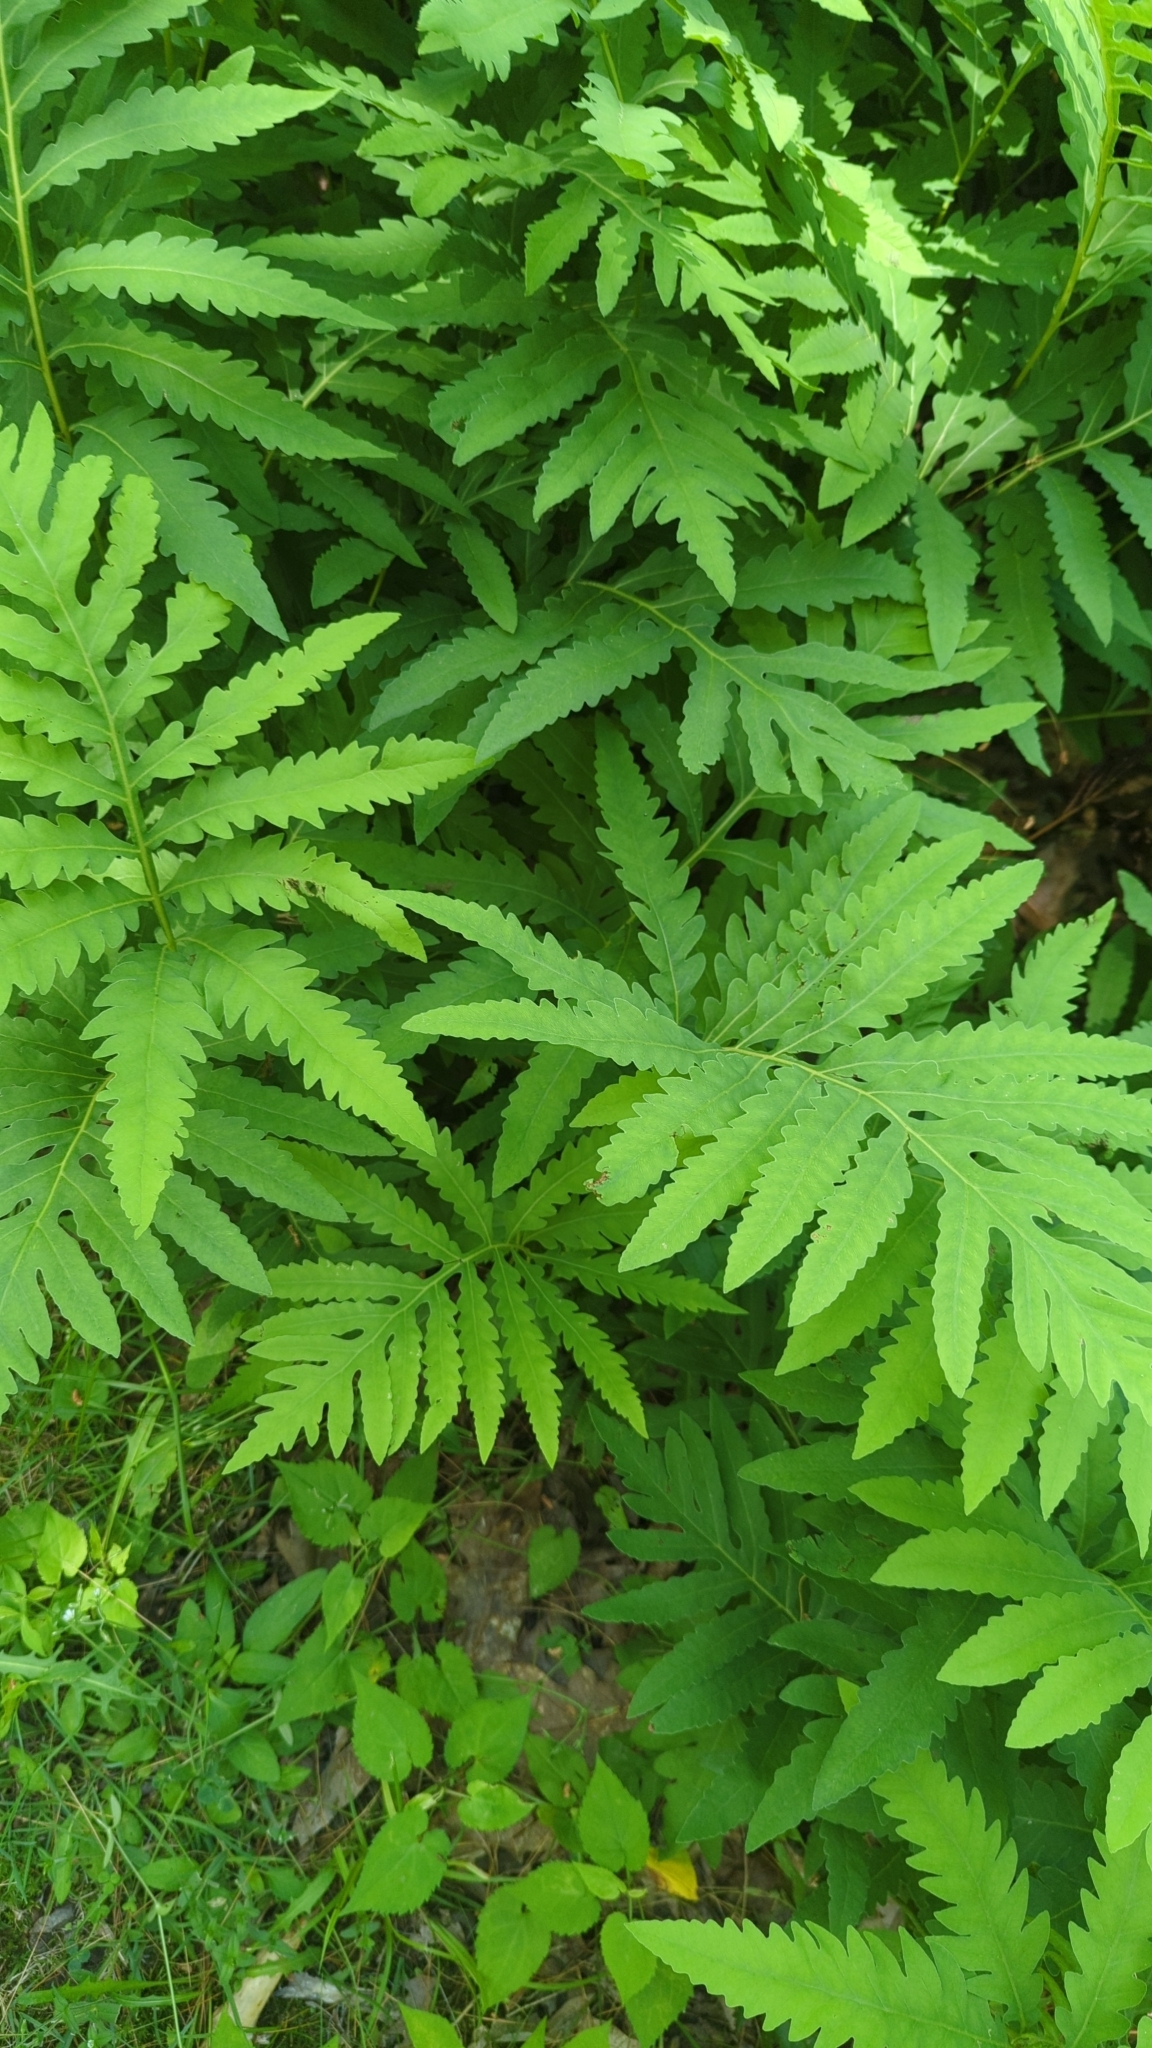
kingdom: Plantae
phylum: Tracheophyta
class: Polypodiopsida
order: Polypodiales
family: Onocleaceae
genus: Onoclea
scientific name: Onoclea sensibilis
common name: Sensitive fern
